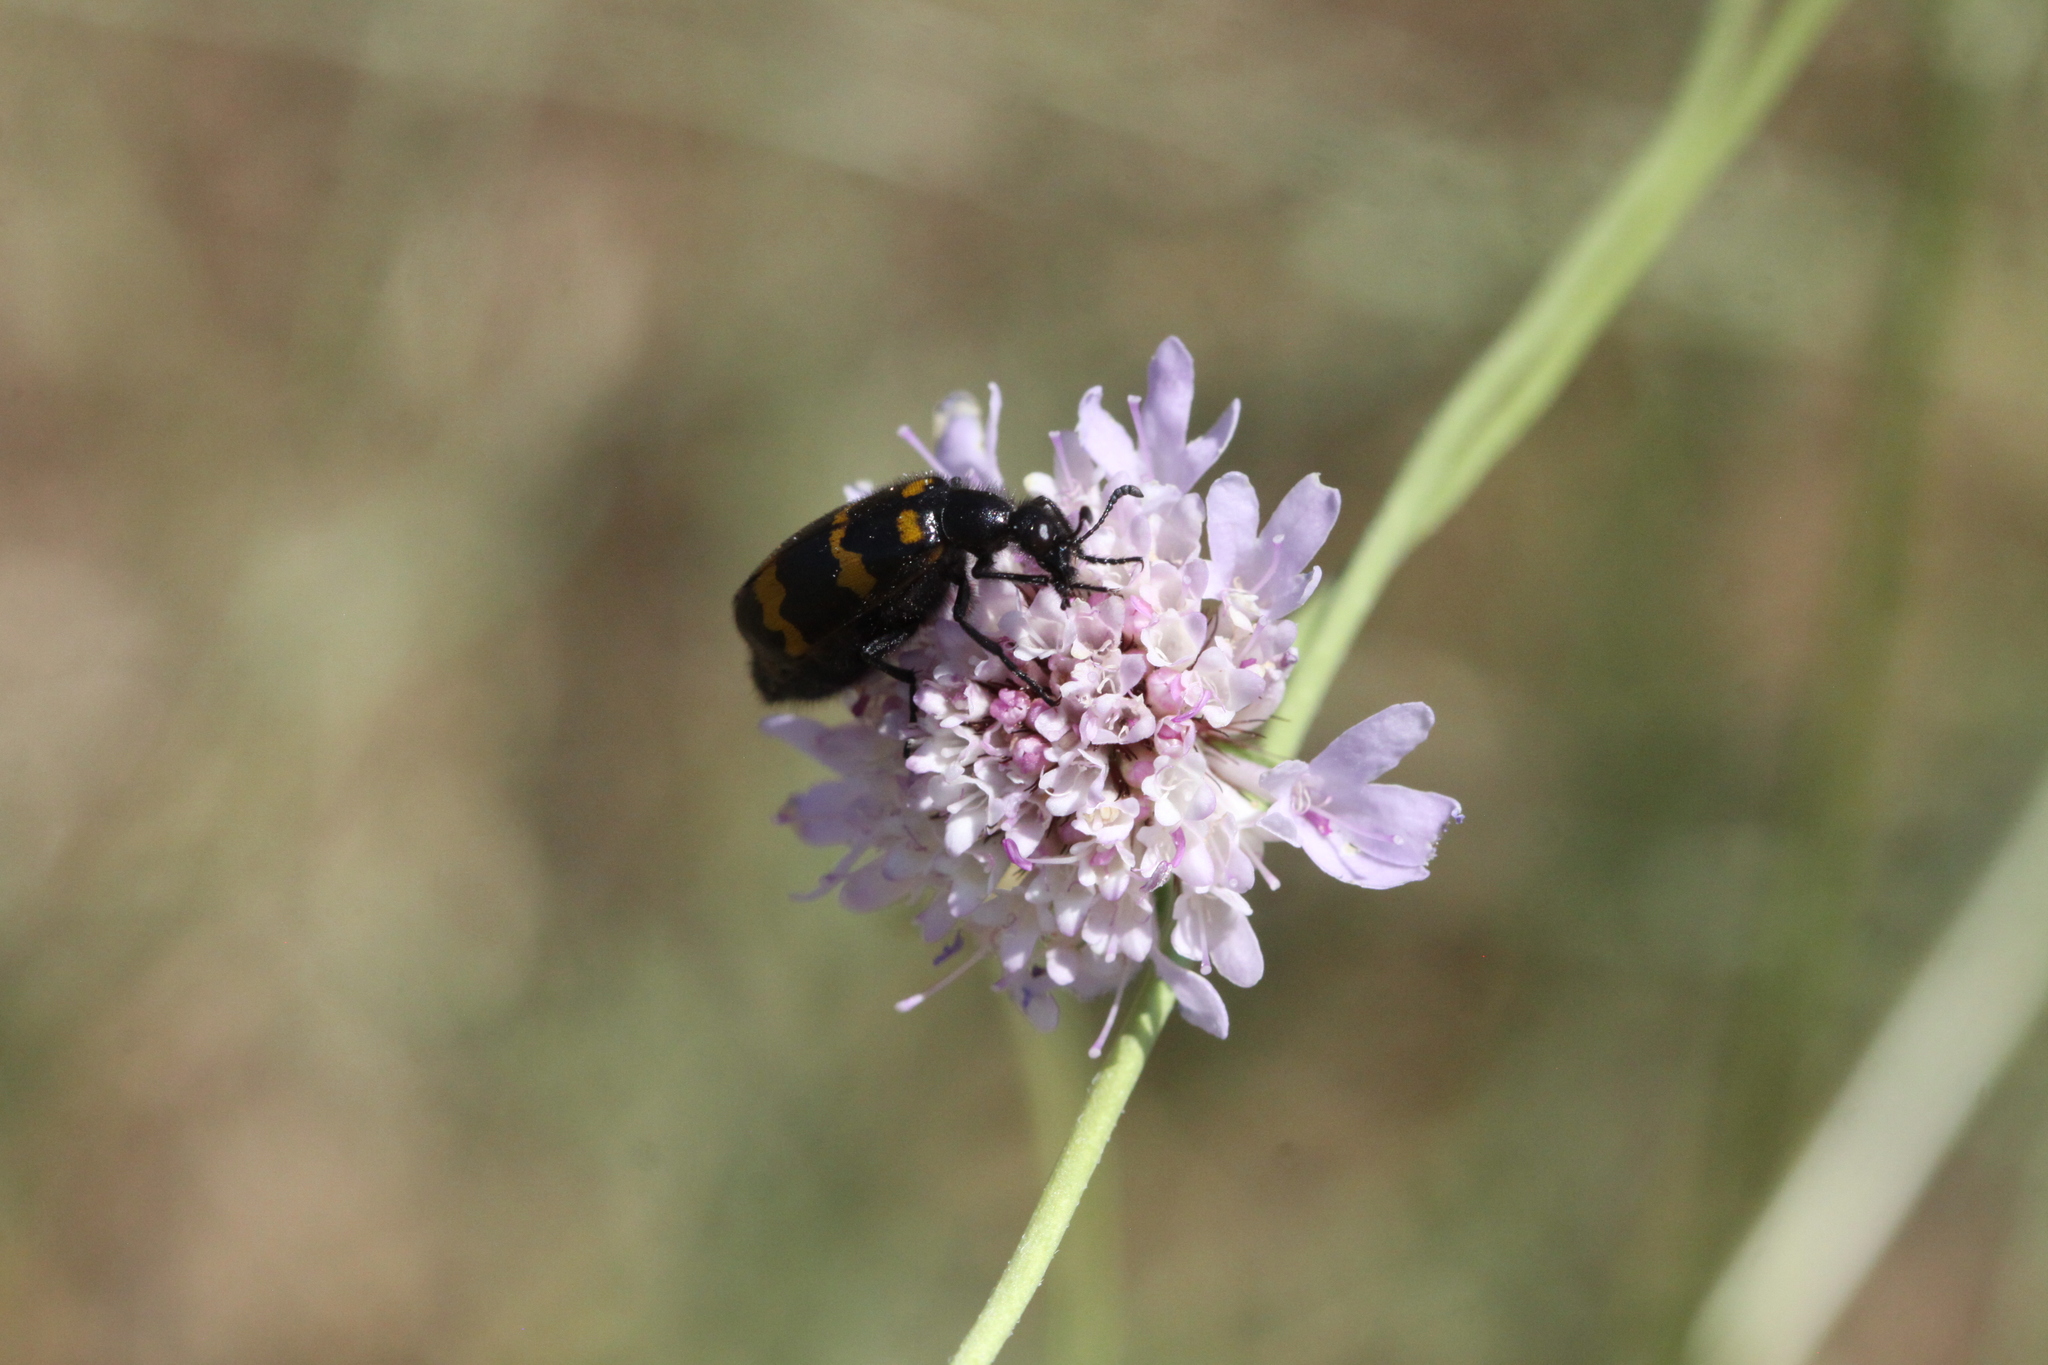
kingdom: Animalia
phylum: Arthropoda
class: Insecta
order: Coleoptera
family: Meloidae
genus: Mylabris
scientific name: Mylabris variabilis
